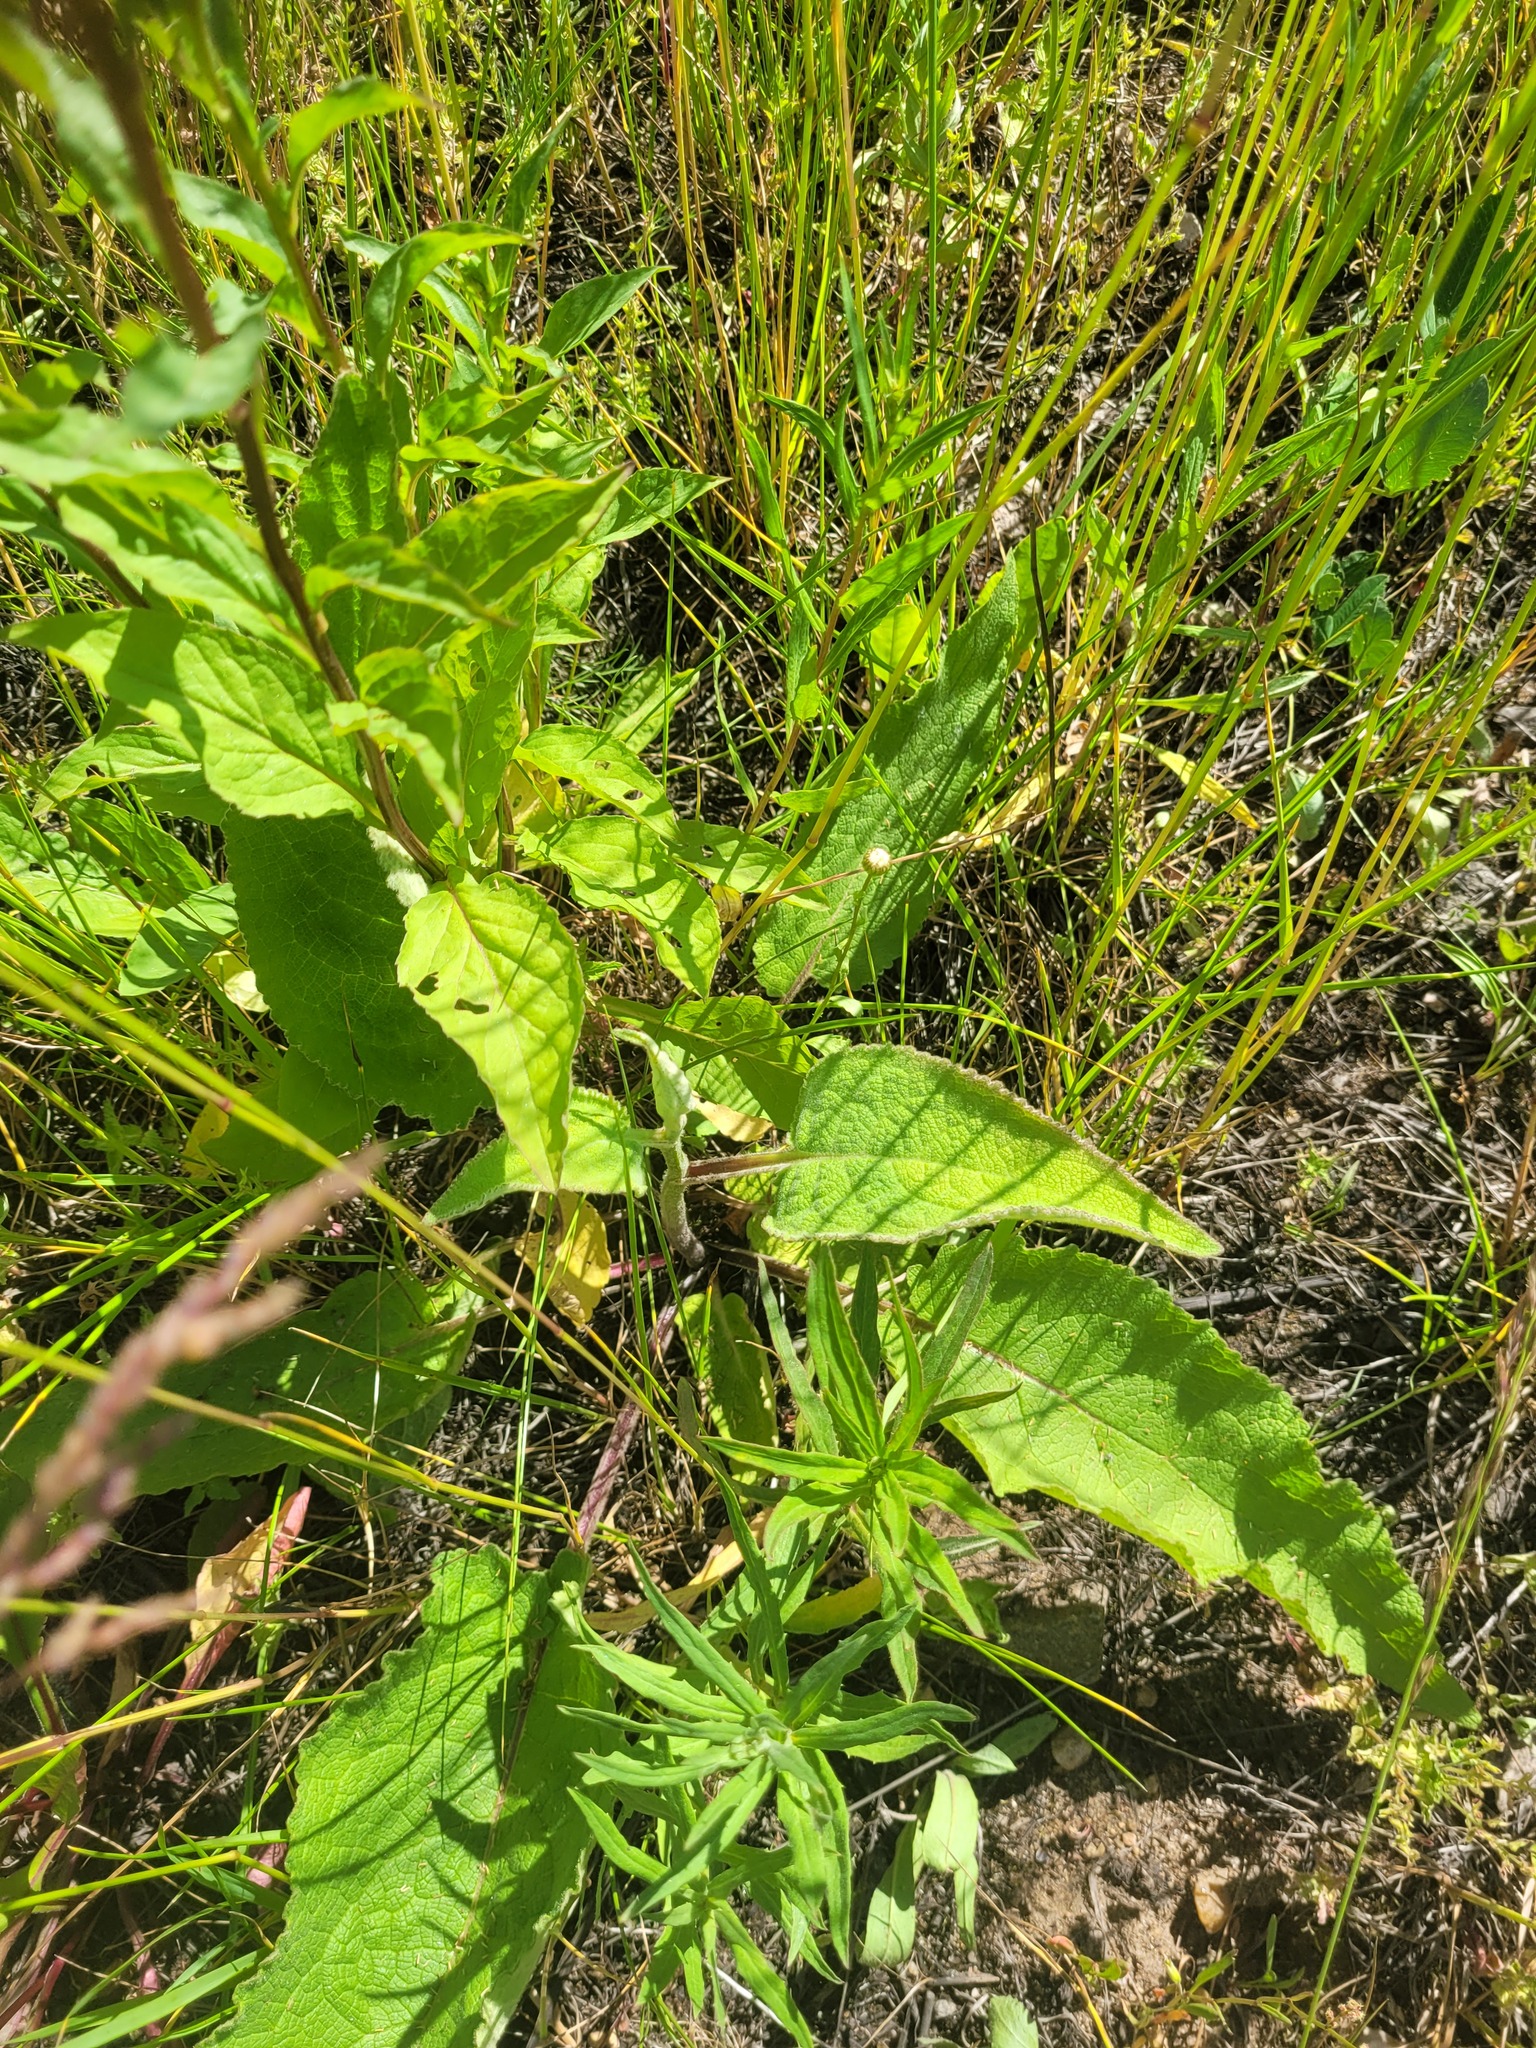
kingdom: Plantae
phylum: Tracheophyta
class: Magnoliopsida
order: Lamiales
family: Scrophulariaceae
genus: Verbascum
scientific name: Verbascum nigrum
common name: Dark mullein
